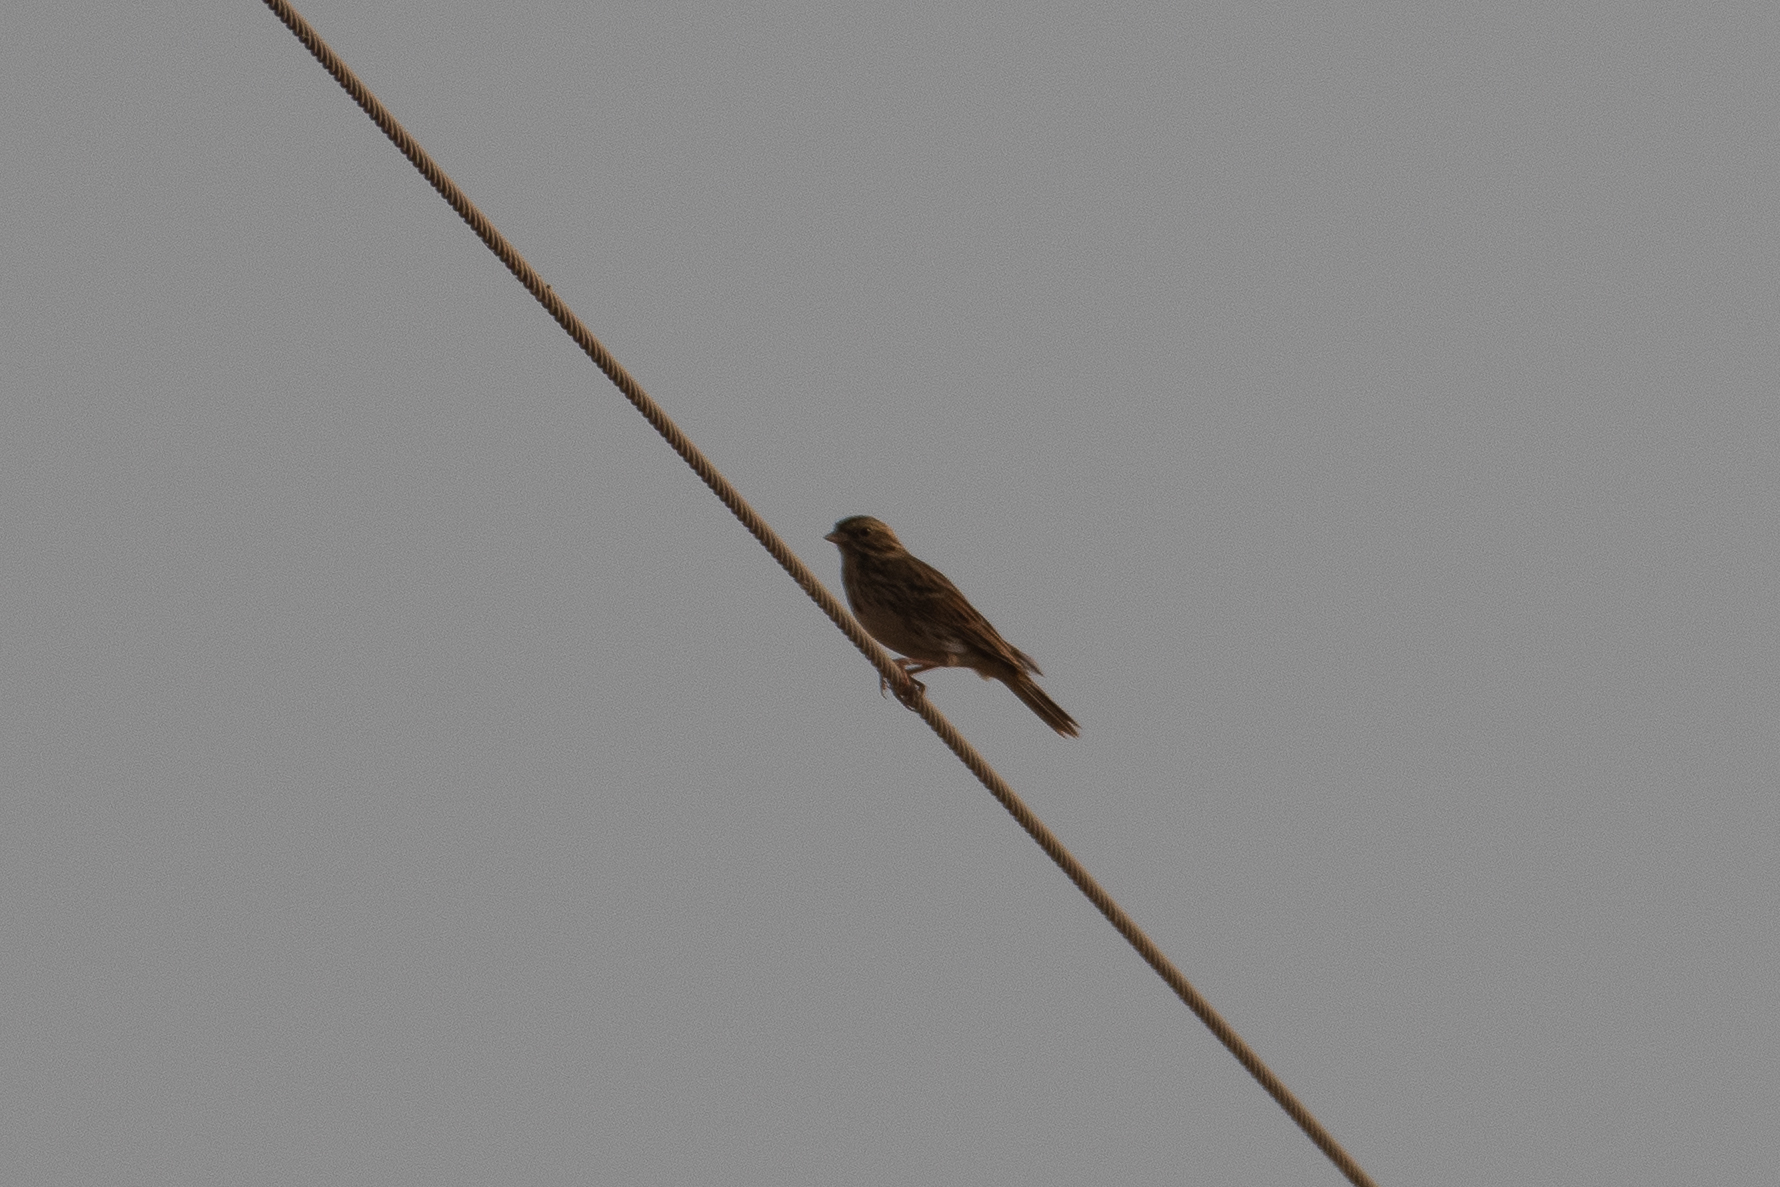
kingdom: Animalia
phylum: Chordata
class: Aves
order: Passeriformes
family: Passerellidae
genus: Passerculus
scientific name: Passerculus sandwichensis
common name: Savannah sparrow
